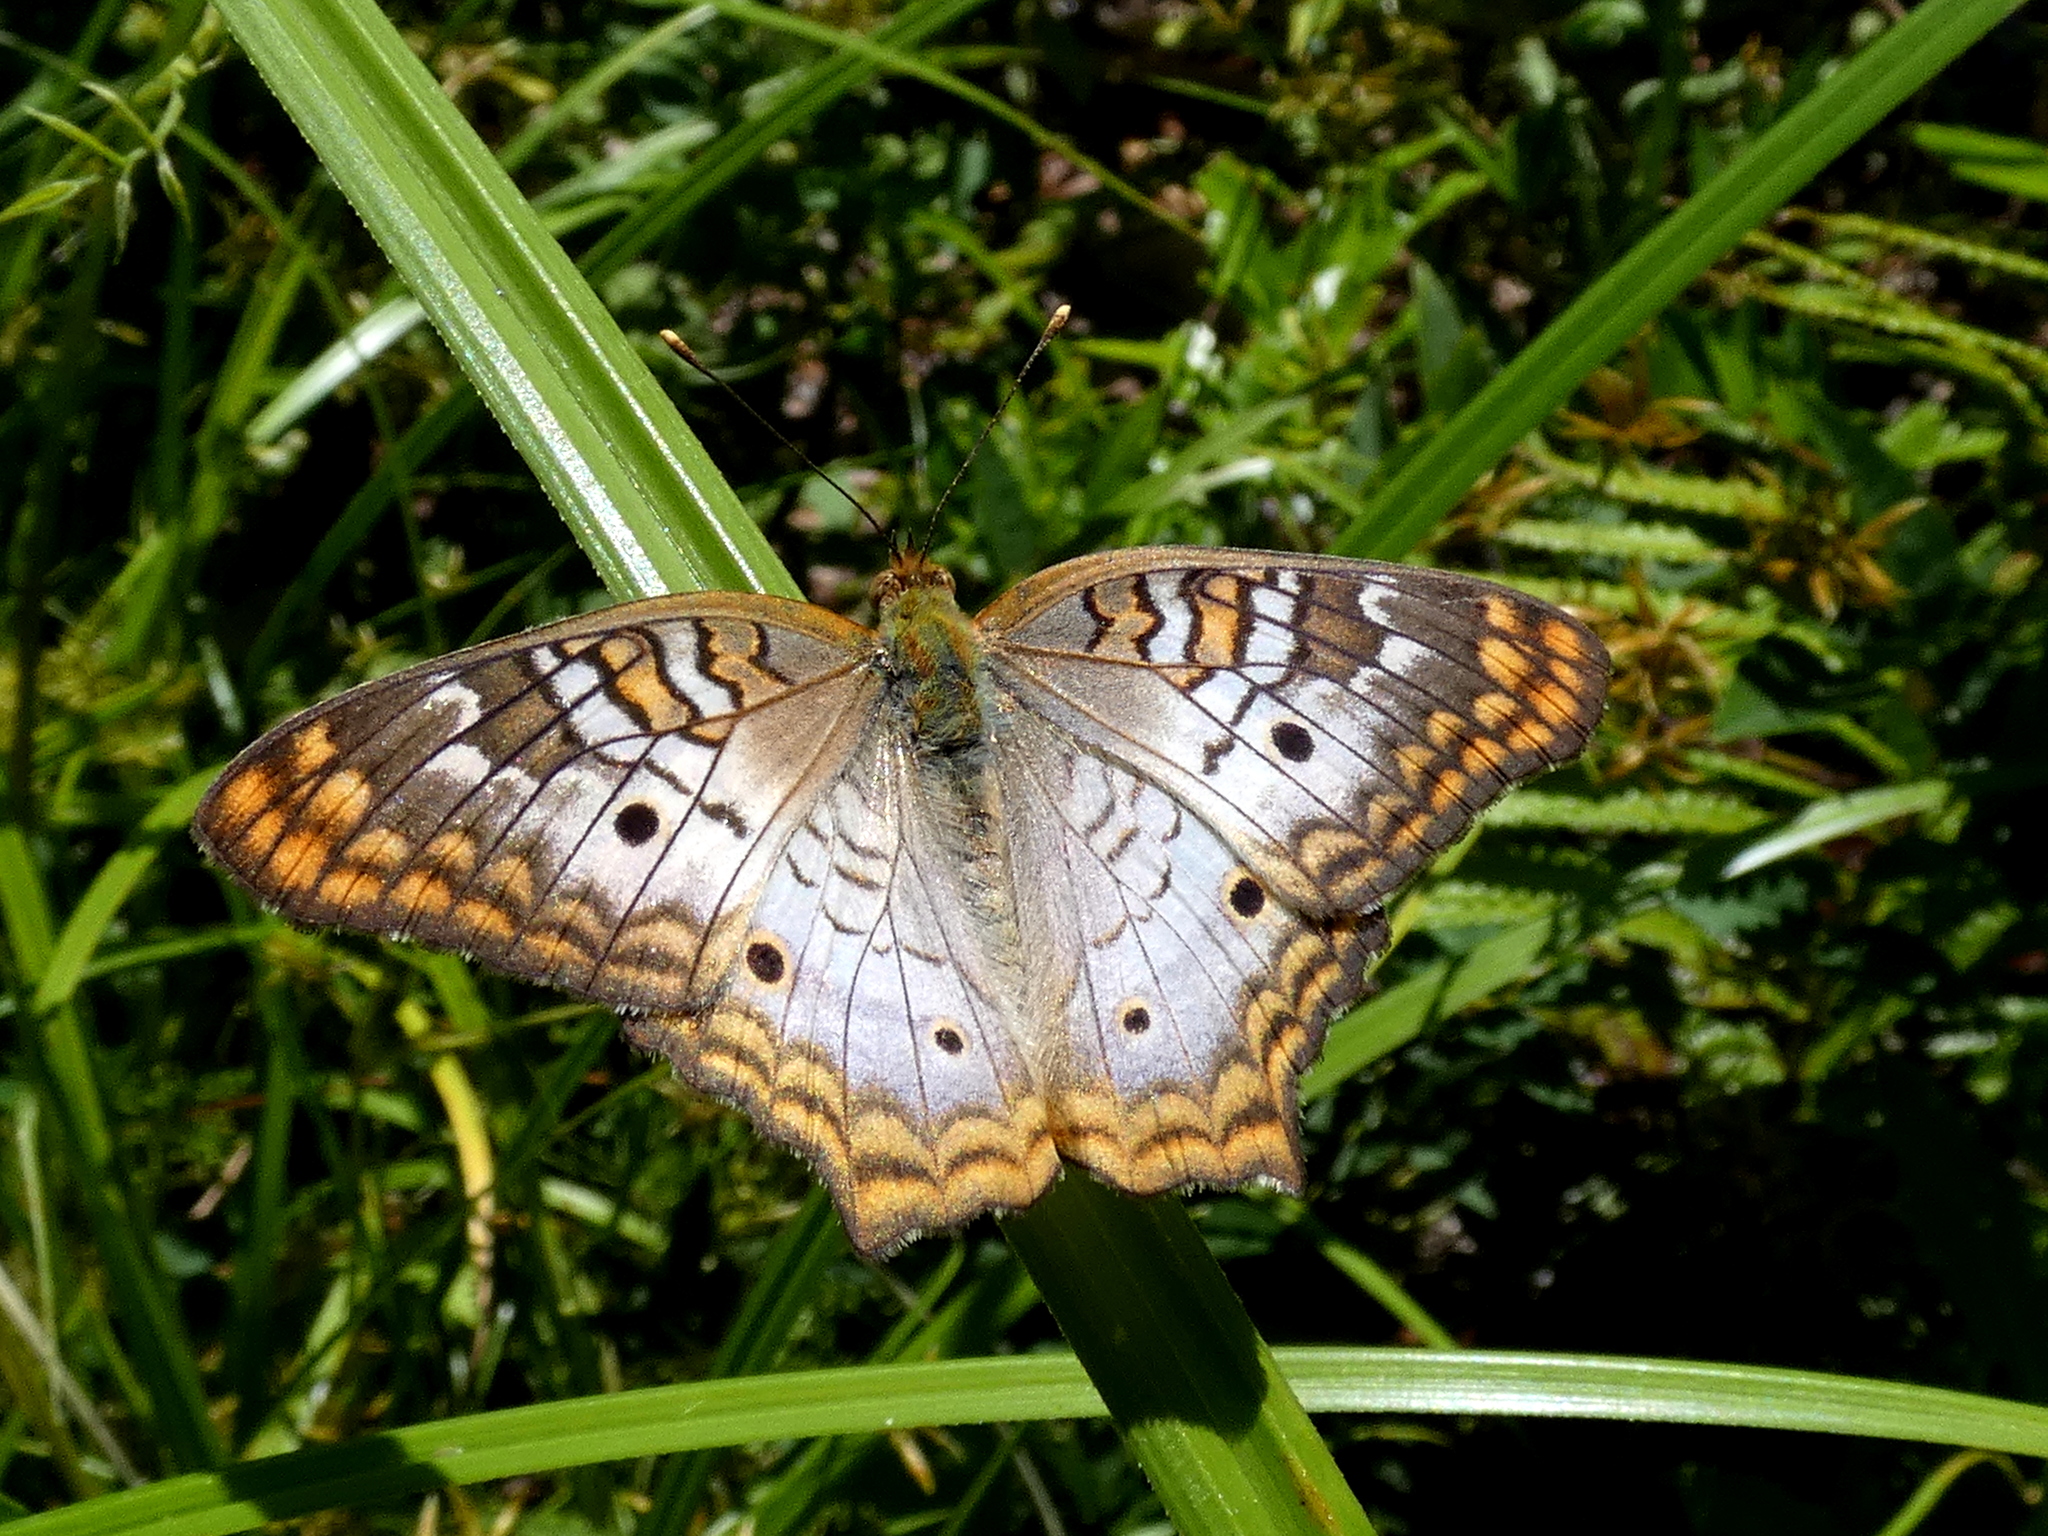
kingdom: Animalia
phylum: Arthropoda
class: Insecta
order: Lepidoptera
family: Nymphalidae
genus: Anartia
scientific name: Anartia jatrophae
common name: White peacock
